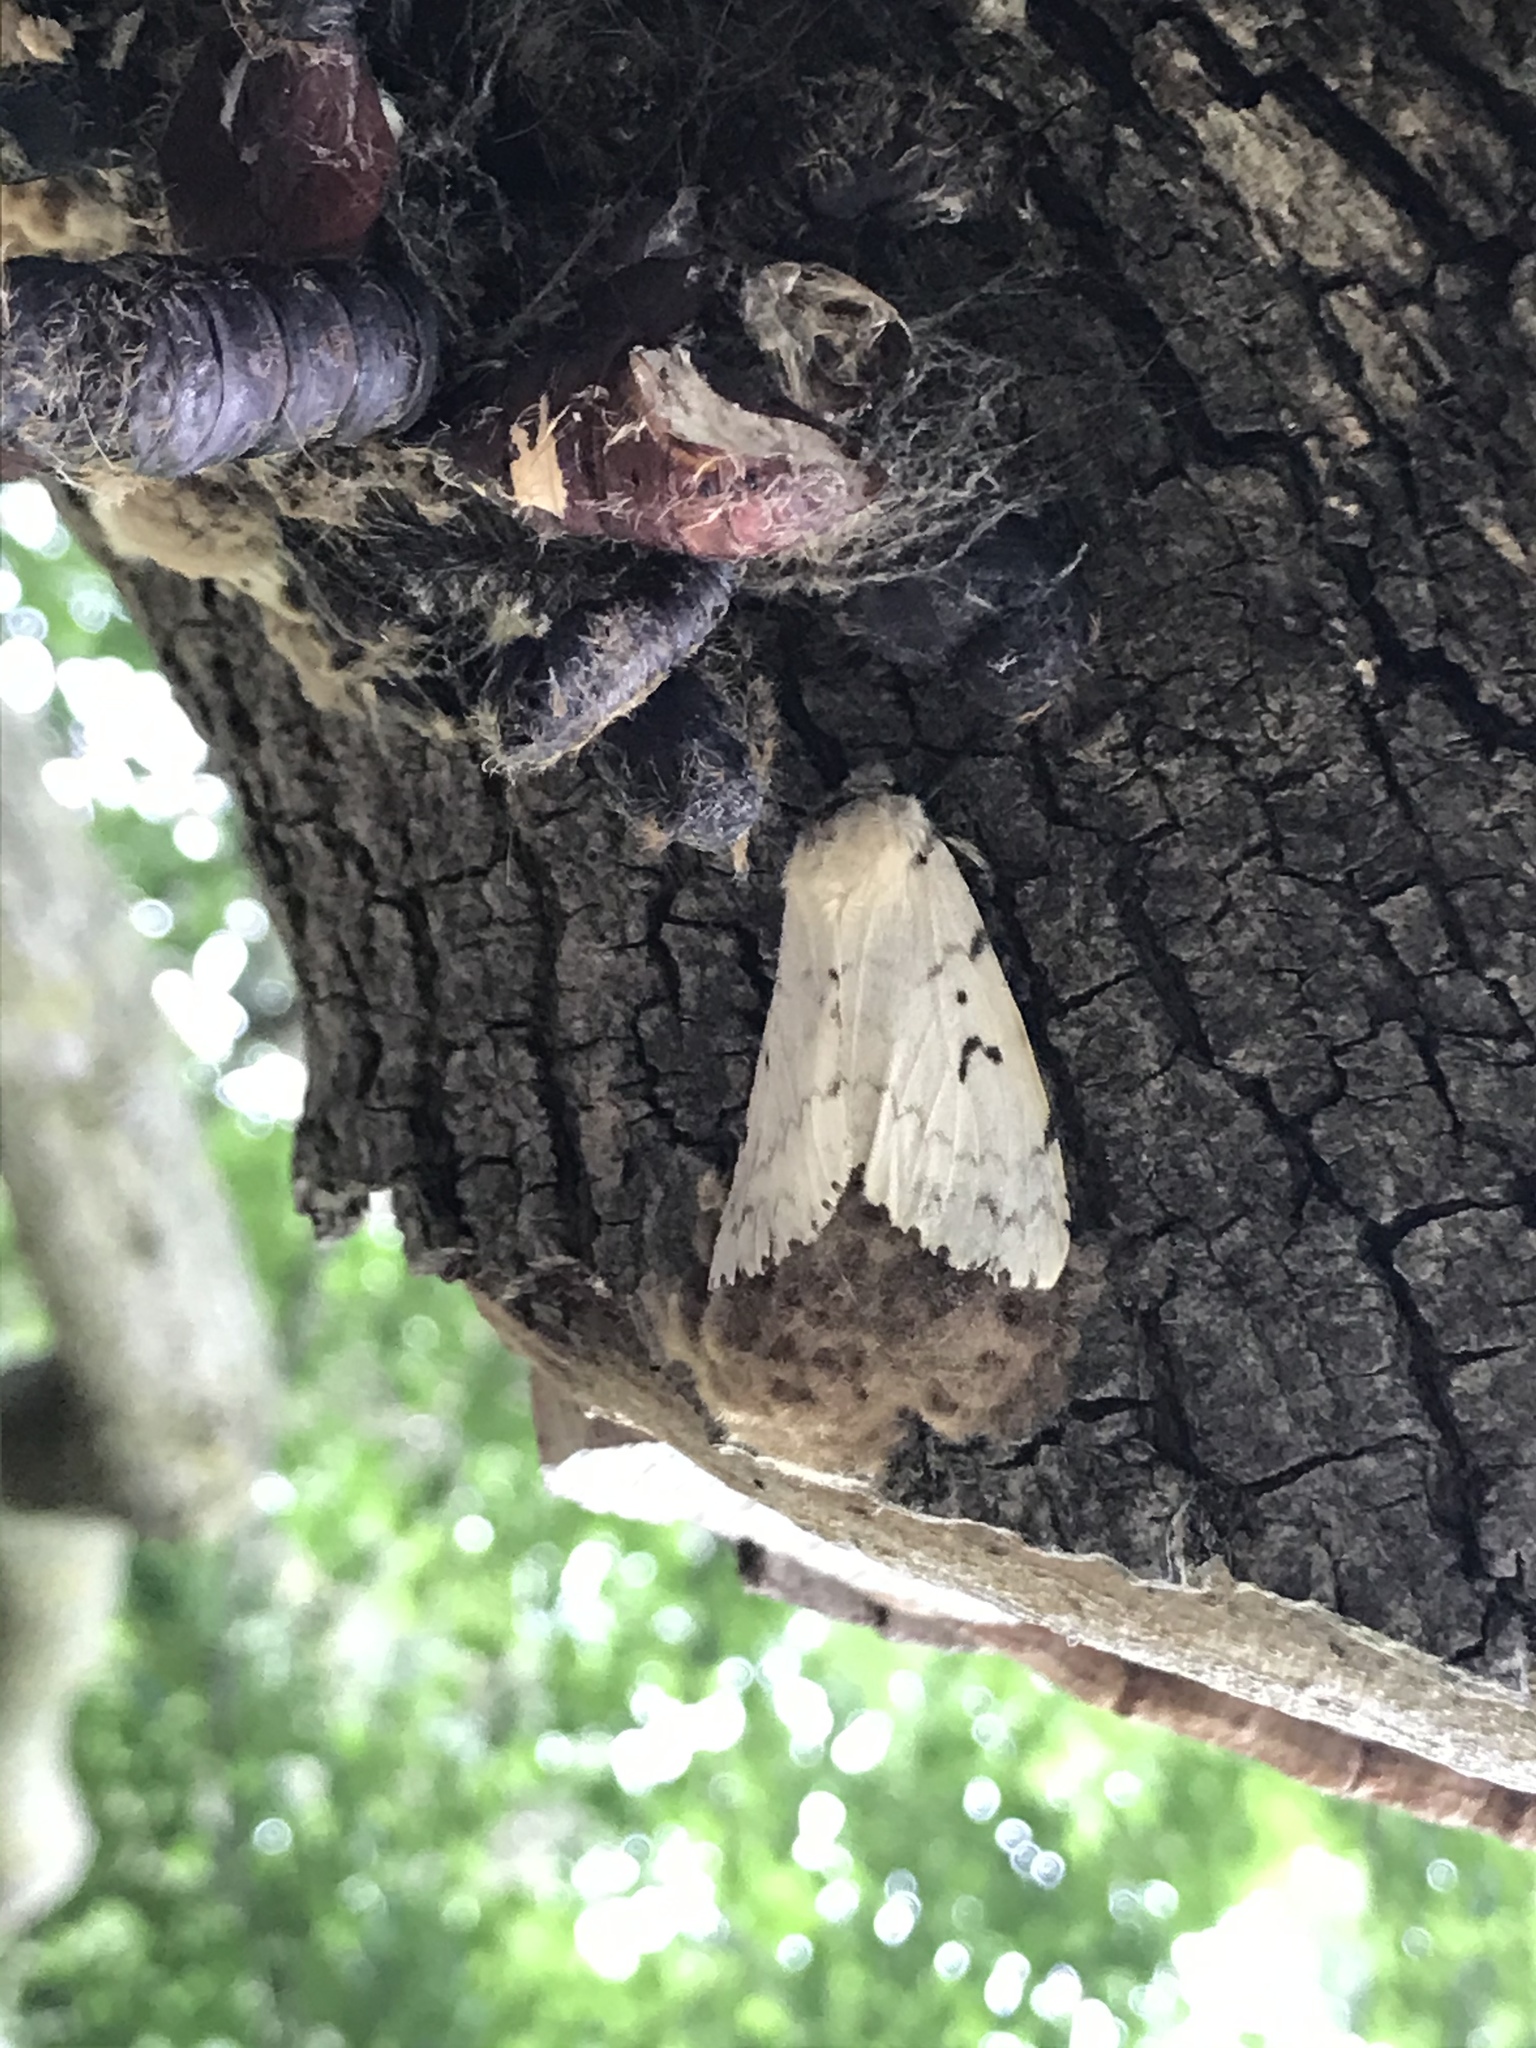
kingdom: Animalia
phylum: Arthropoda
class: Insecta
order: Lepidoptera
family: Erebidae
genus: Lymantria
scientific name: Lymantria dispar
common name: Gypsy moth
